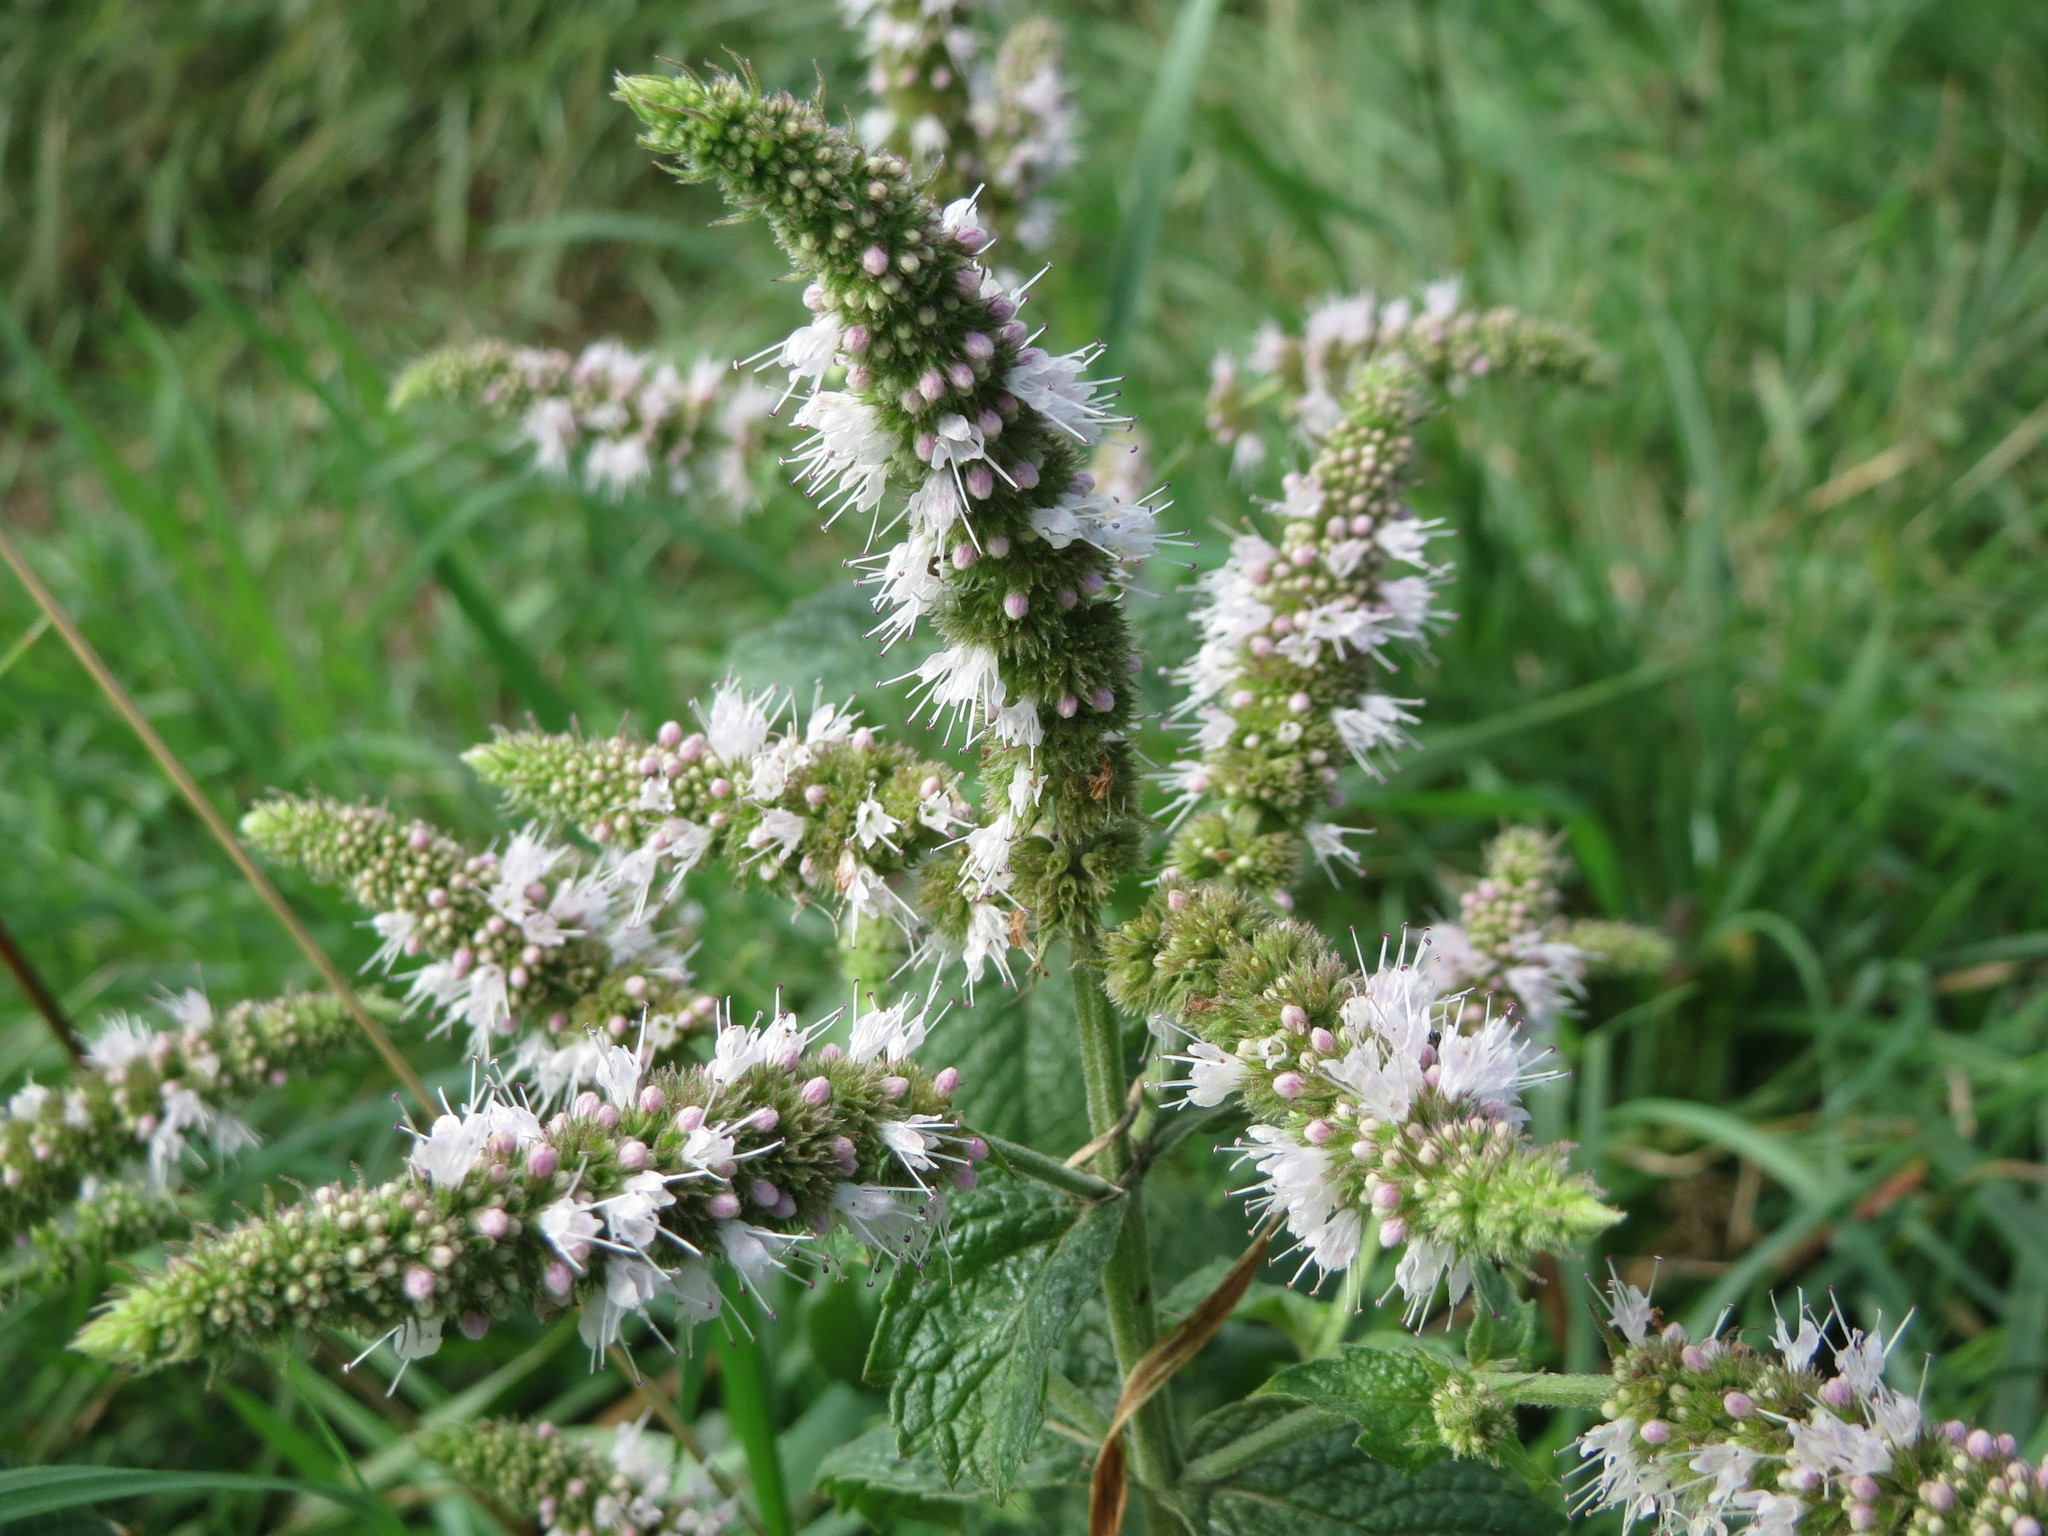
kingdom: Plantae
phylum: Tracheophyta
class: Magnoliopsida
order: Lamiales
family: Lamiaceae
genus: Mentha
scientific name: Mentha longifolia
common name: Horse mint
